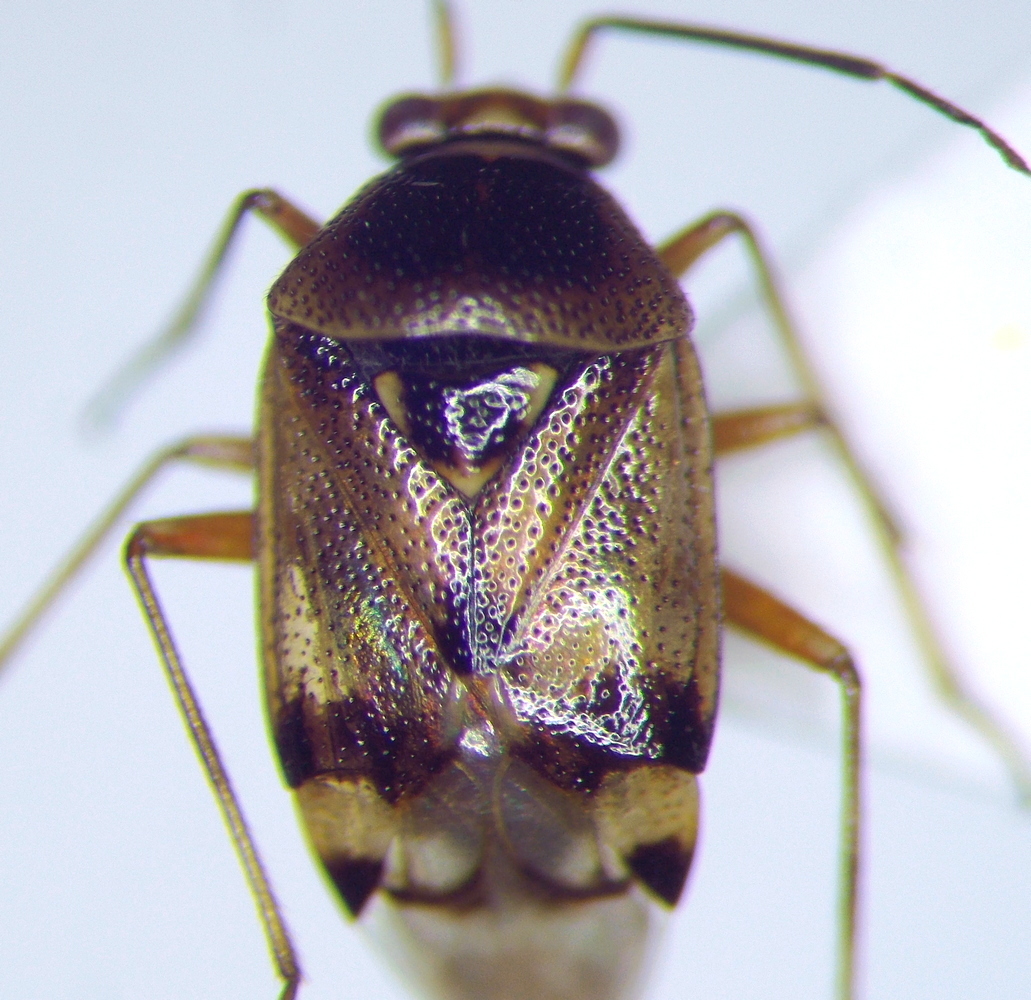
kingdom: Animalia
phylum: Arthropoda
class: Insecta
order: Hemiptera
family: Miridae
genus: Deraeocoris
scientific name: Deraeocoris serenus
